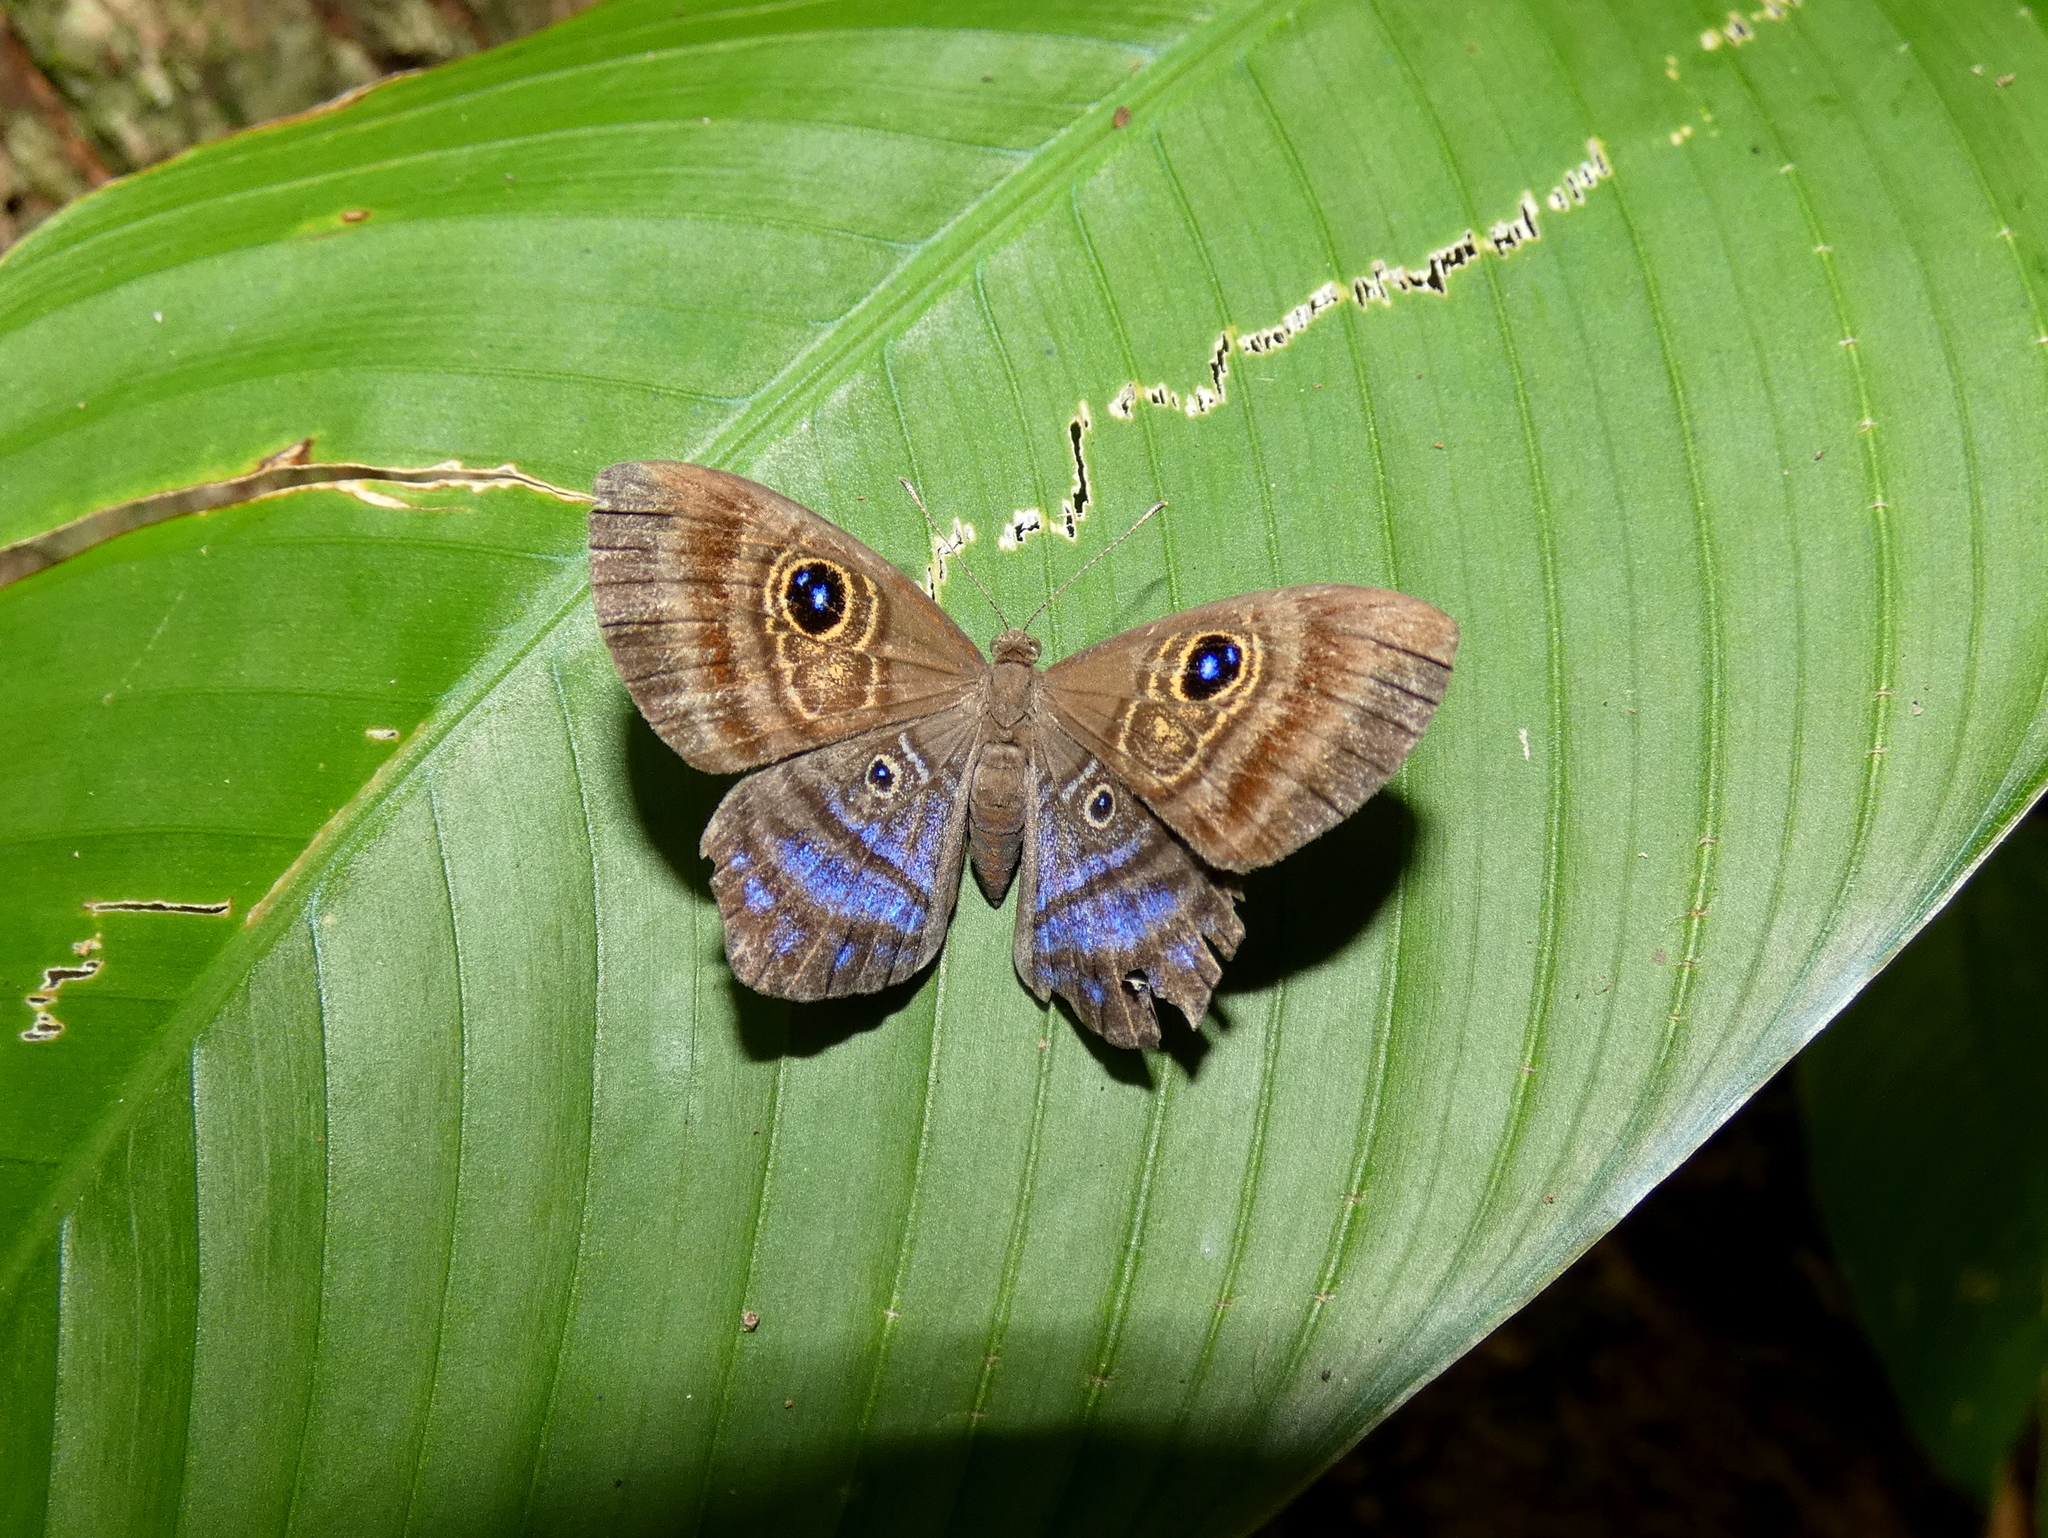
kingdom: Animalia
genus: Mesosemia
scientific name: Mesosemia
